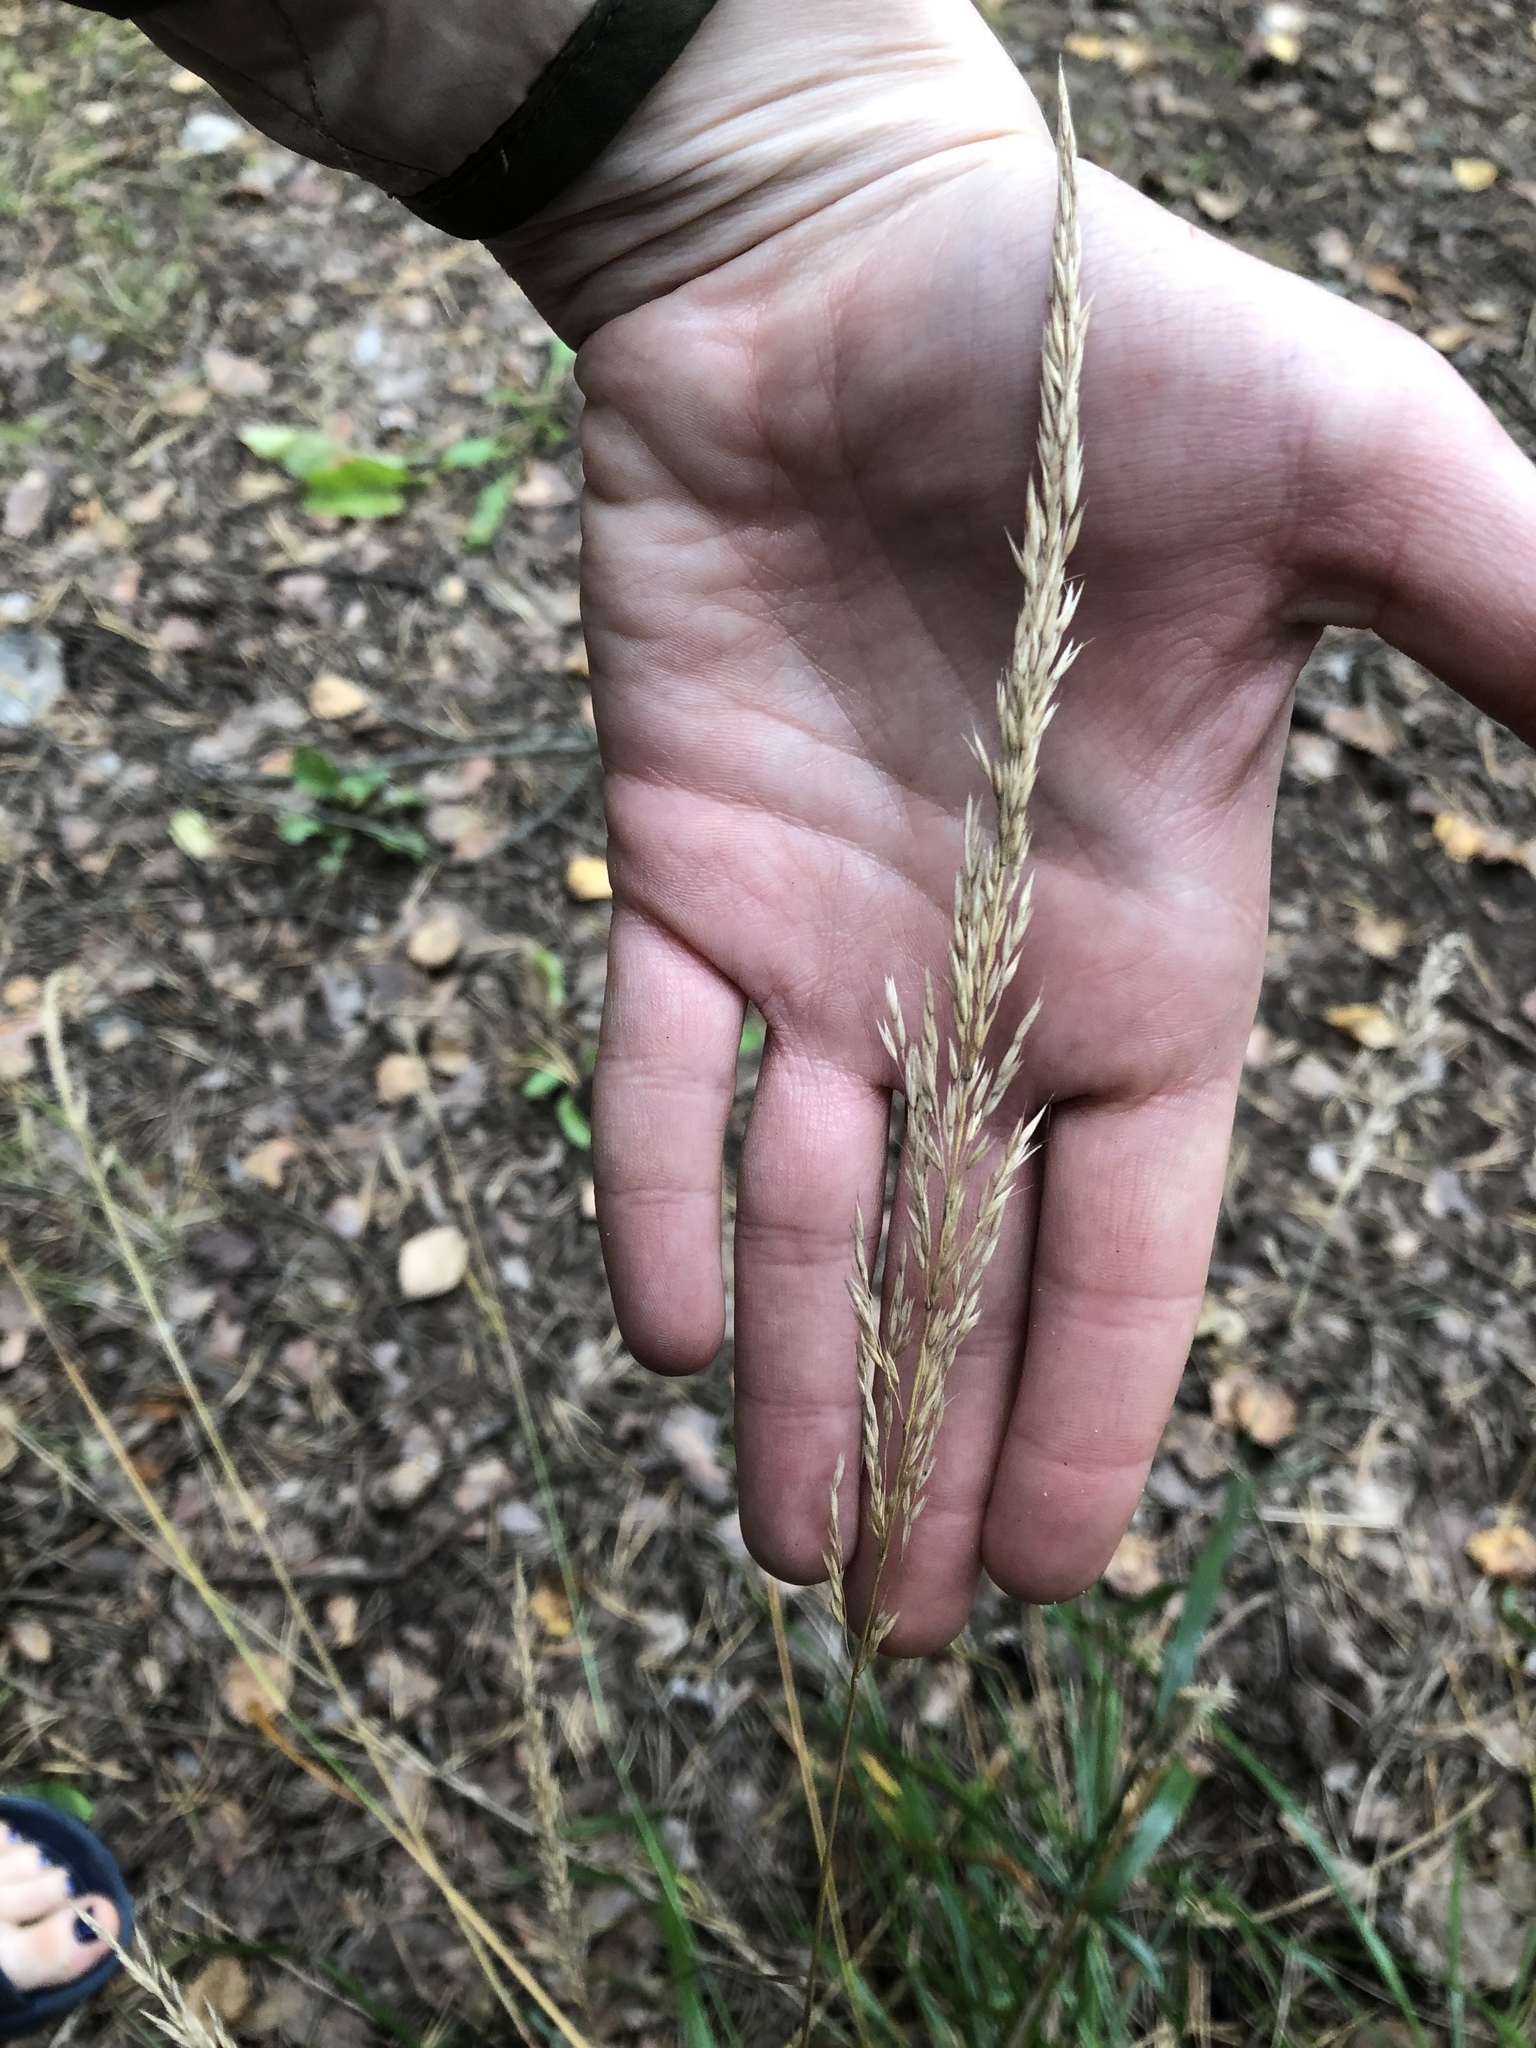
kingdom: Plantae
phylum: Tracheophyta
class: Liliopsida
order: Poales
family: Poaceae
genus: Calamagrostis
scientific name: Calamagrostis arundinacea
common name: Metskastik
